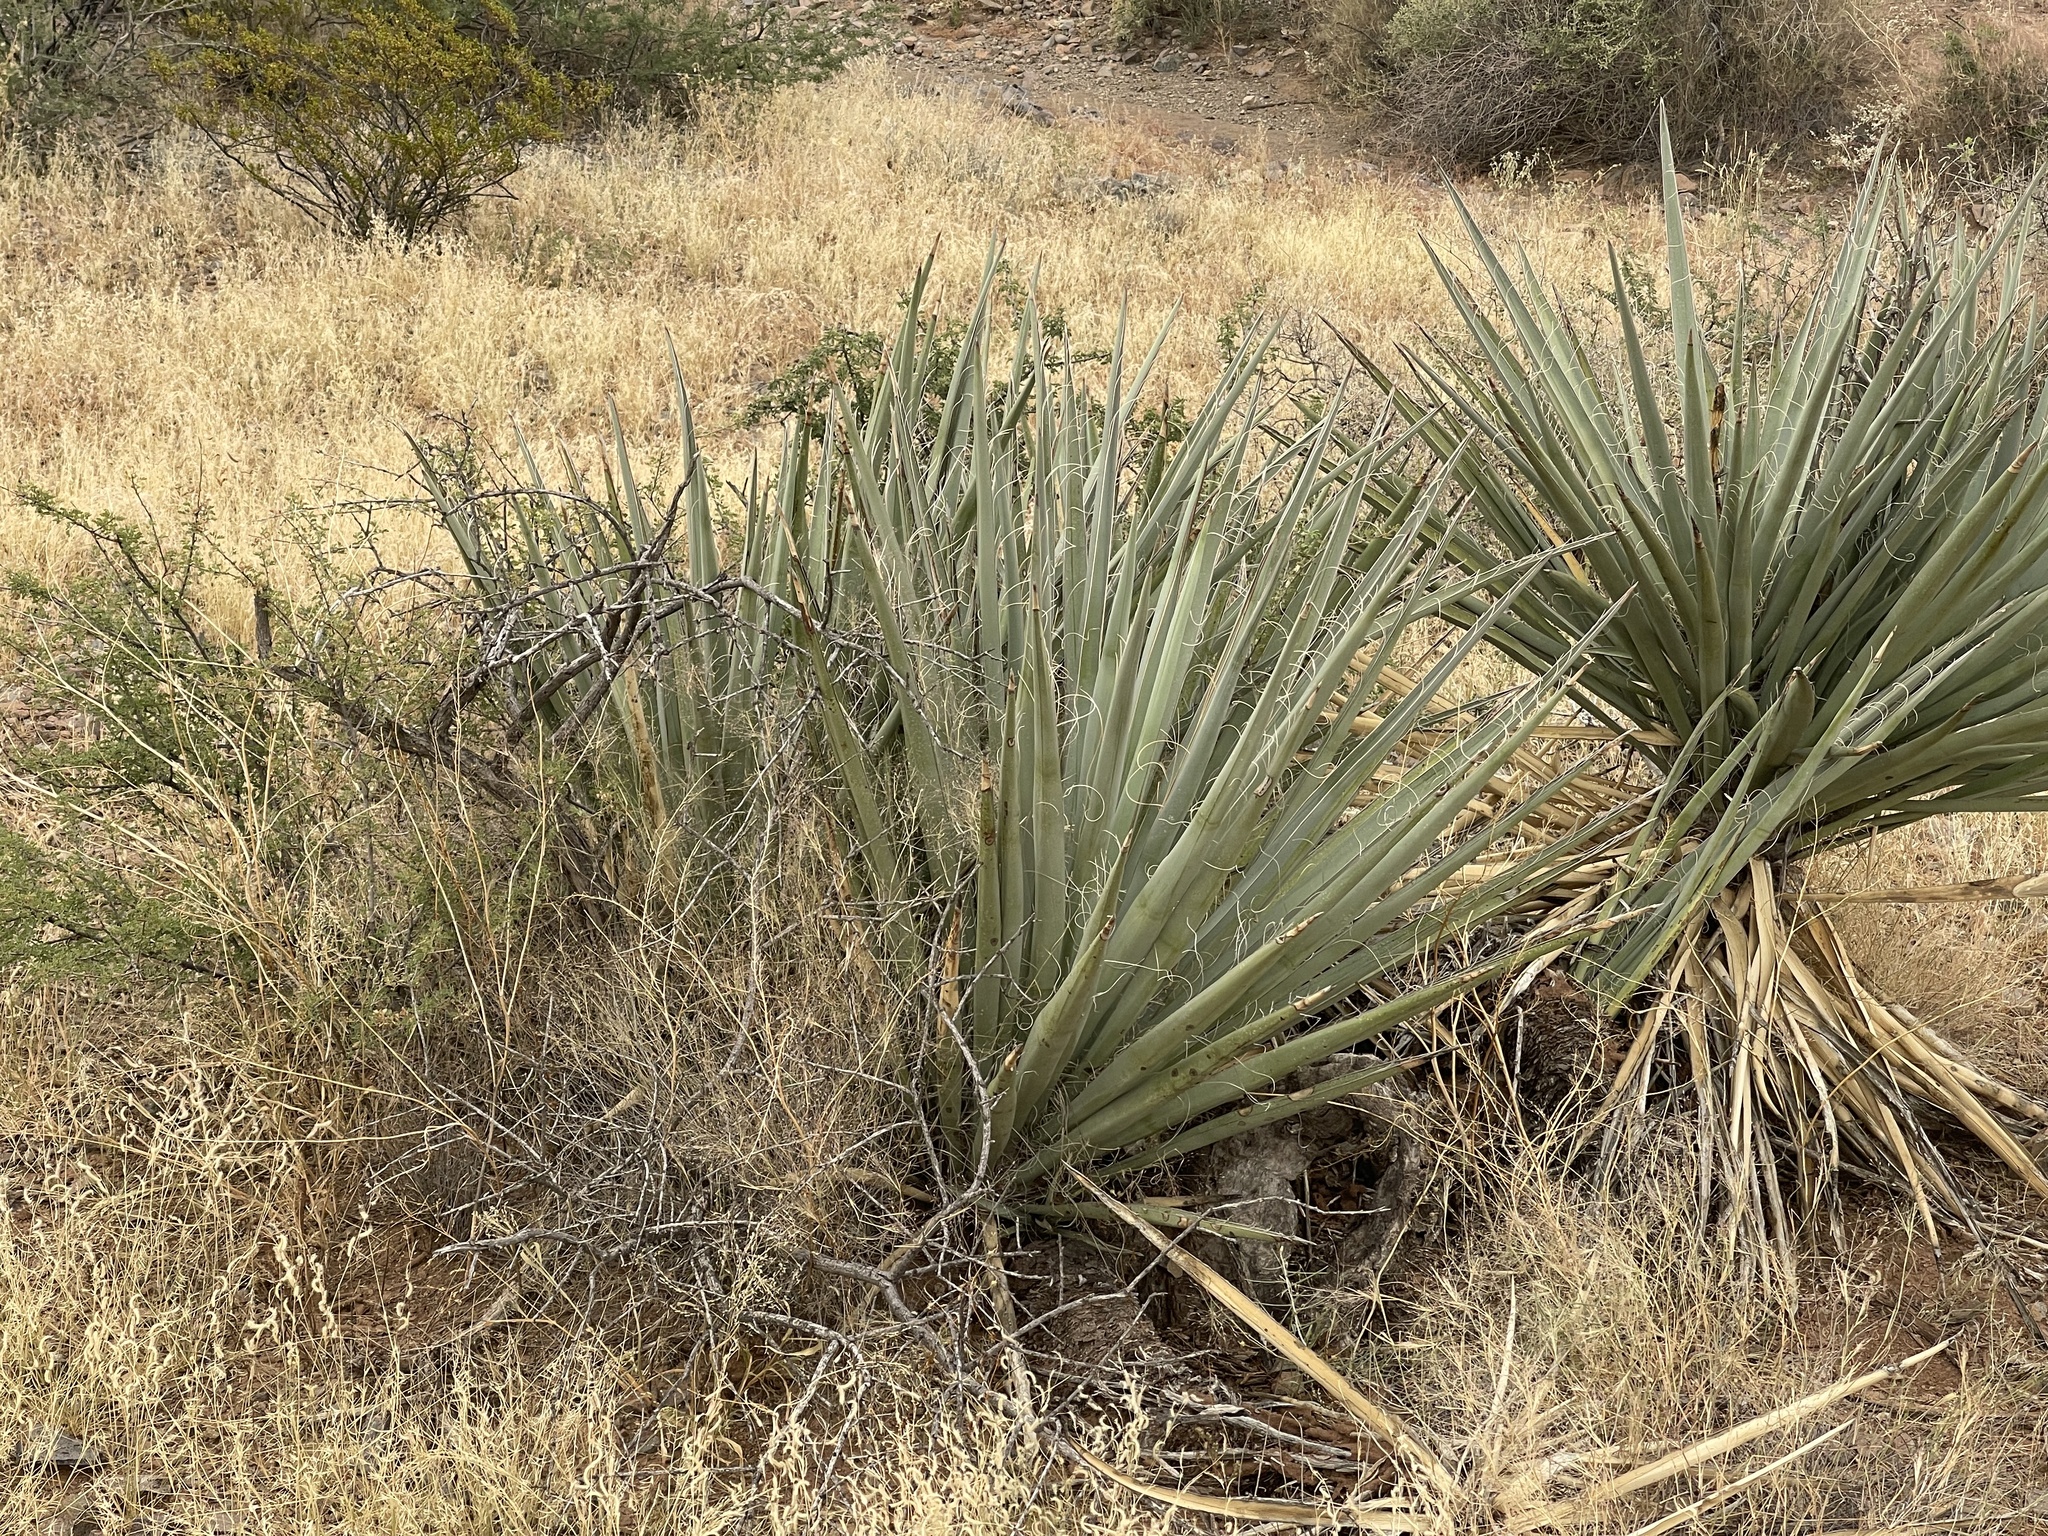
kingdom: Plantae
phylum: Tracheophyta
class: Liliopsida
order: Asparagales
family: Asparagaceae
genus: Yucca
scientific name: Yucca baccata
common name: Banana yucca
